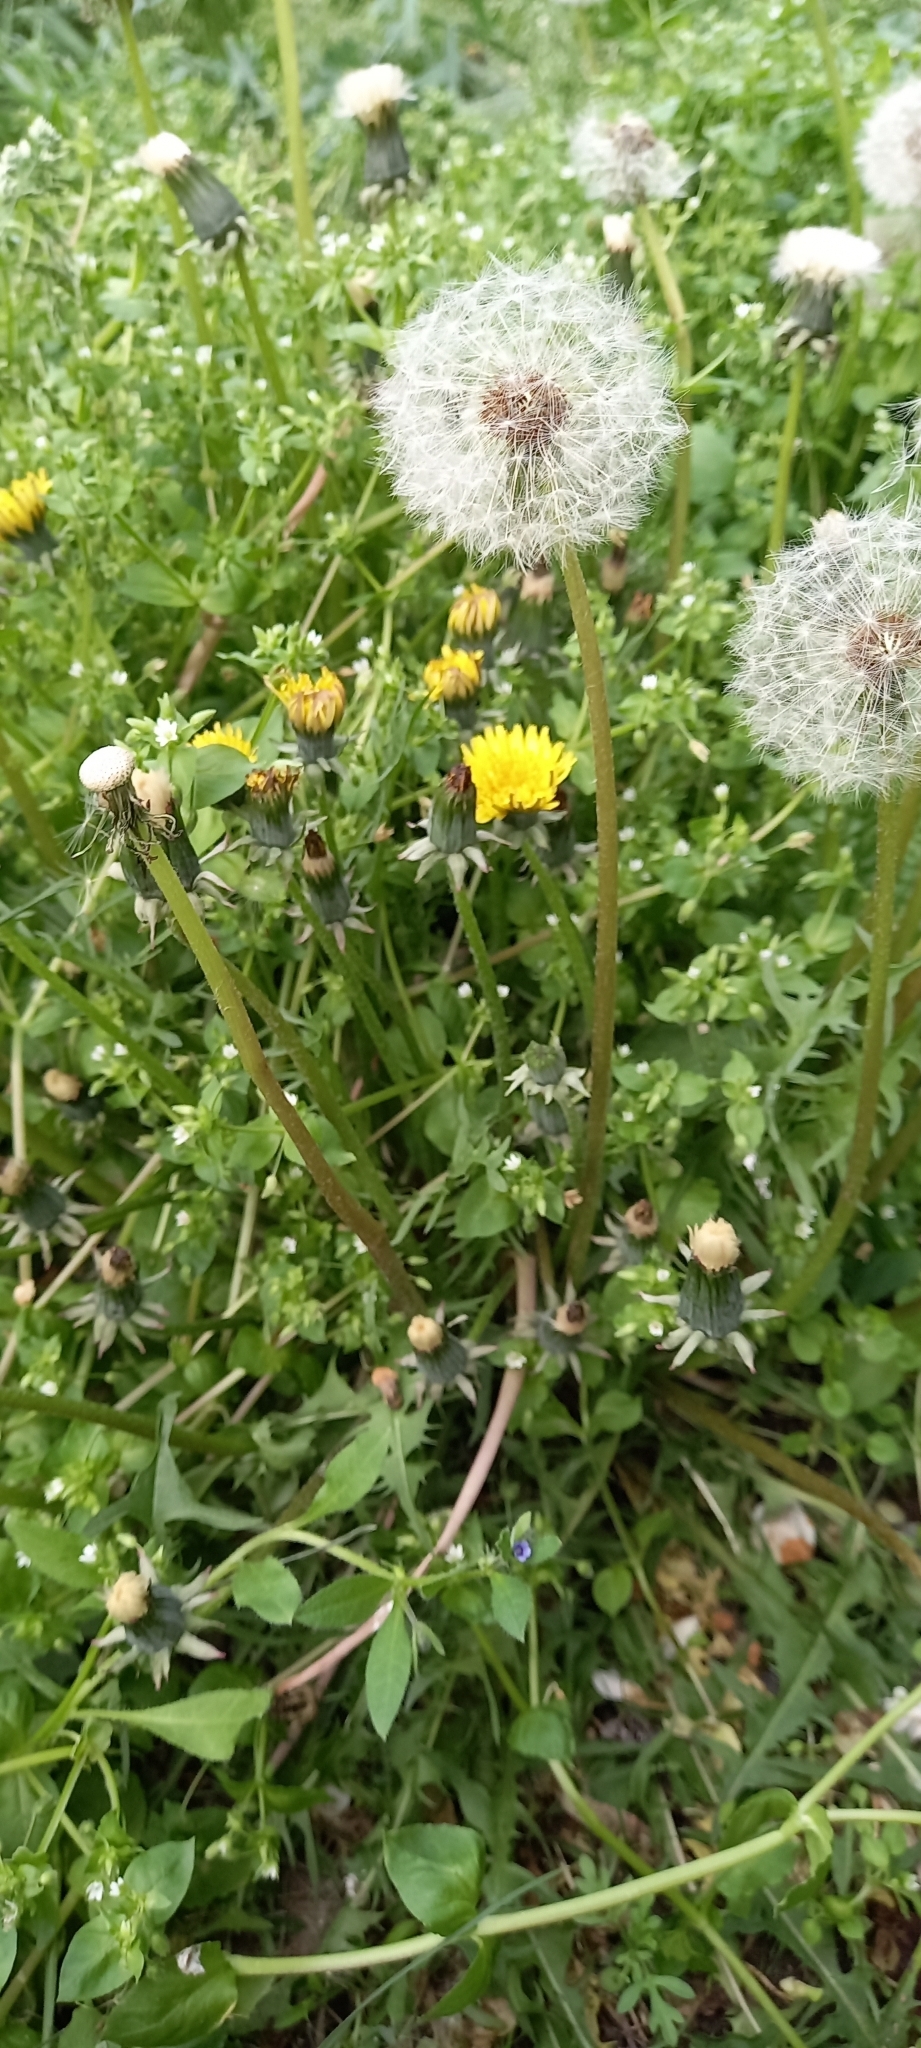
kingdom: Plantae
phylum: Tracheophyta
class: Magnoliopsida
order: Asterales
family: Asteraceae
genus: Taraxacum
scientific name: Taraxacum officinale
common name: Common dandelion
